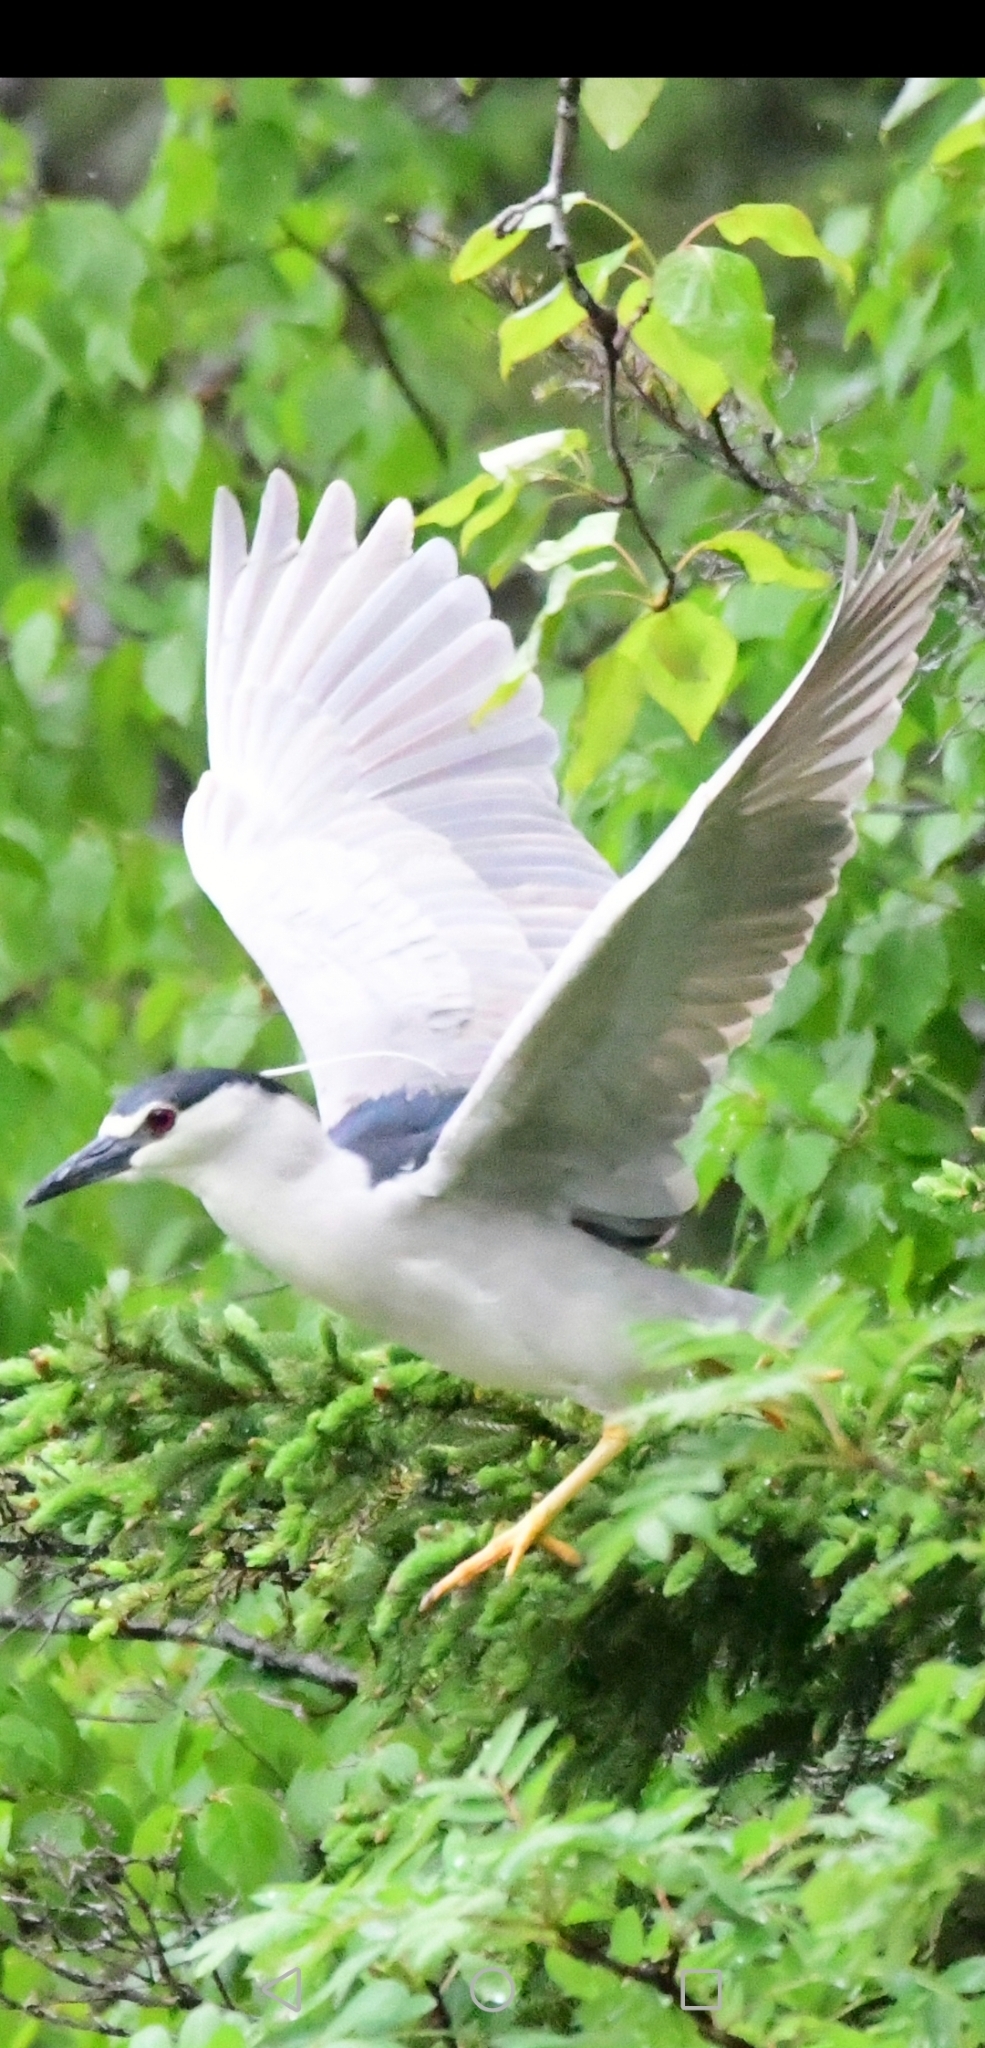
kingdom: Animalia
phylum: Chordata
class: Aves
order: Pelecaniformes
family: Ardeidae
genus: Nycticorax
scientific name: Nycticorax nycticorax
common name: Black-crowned night heron
